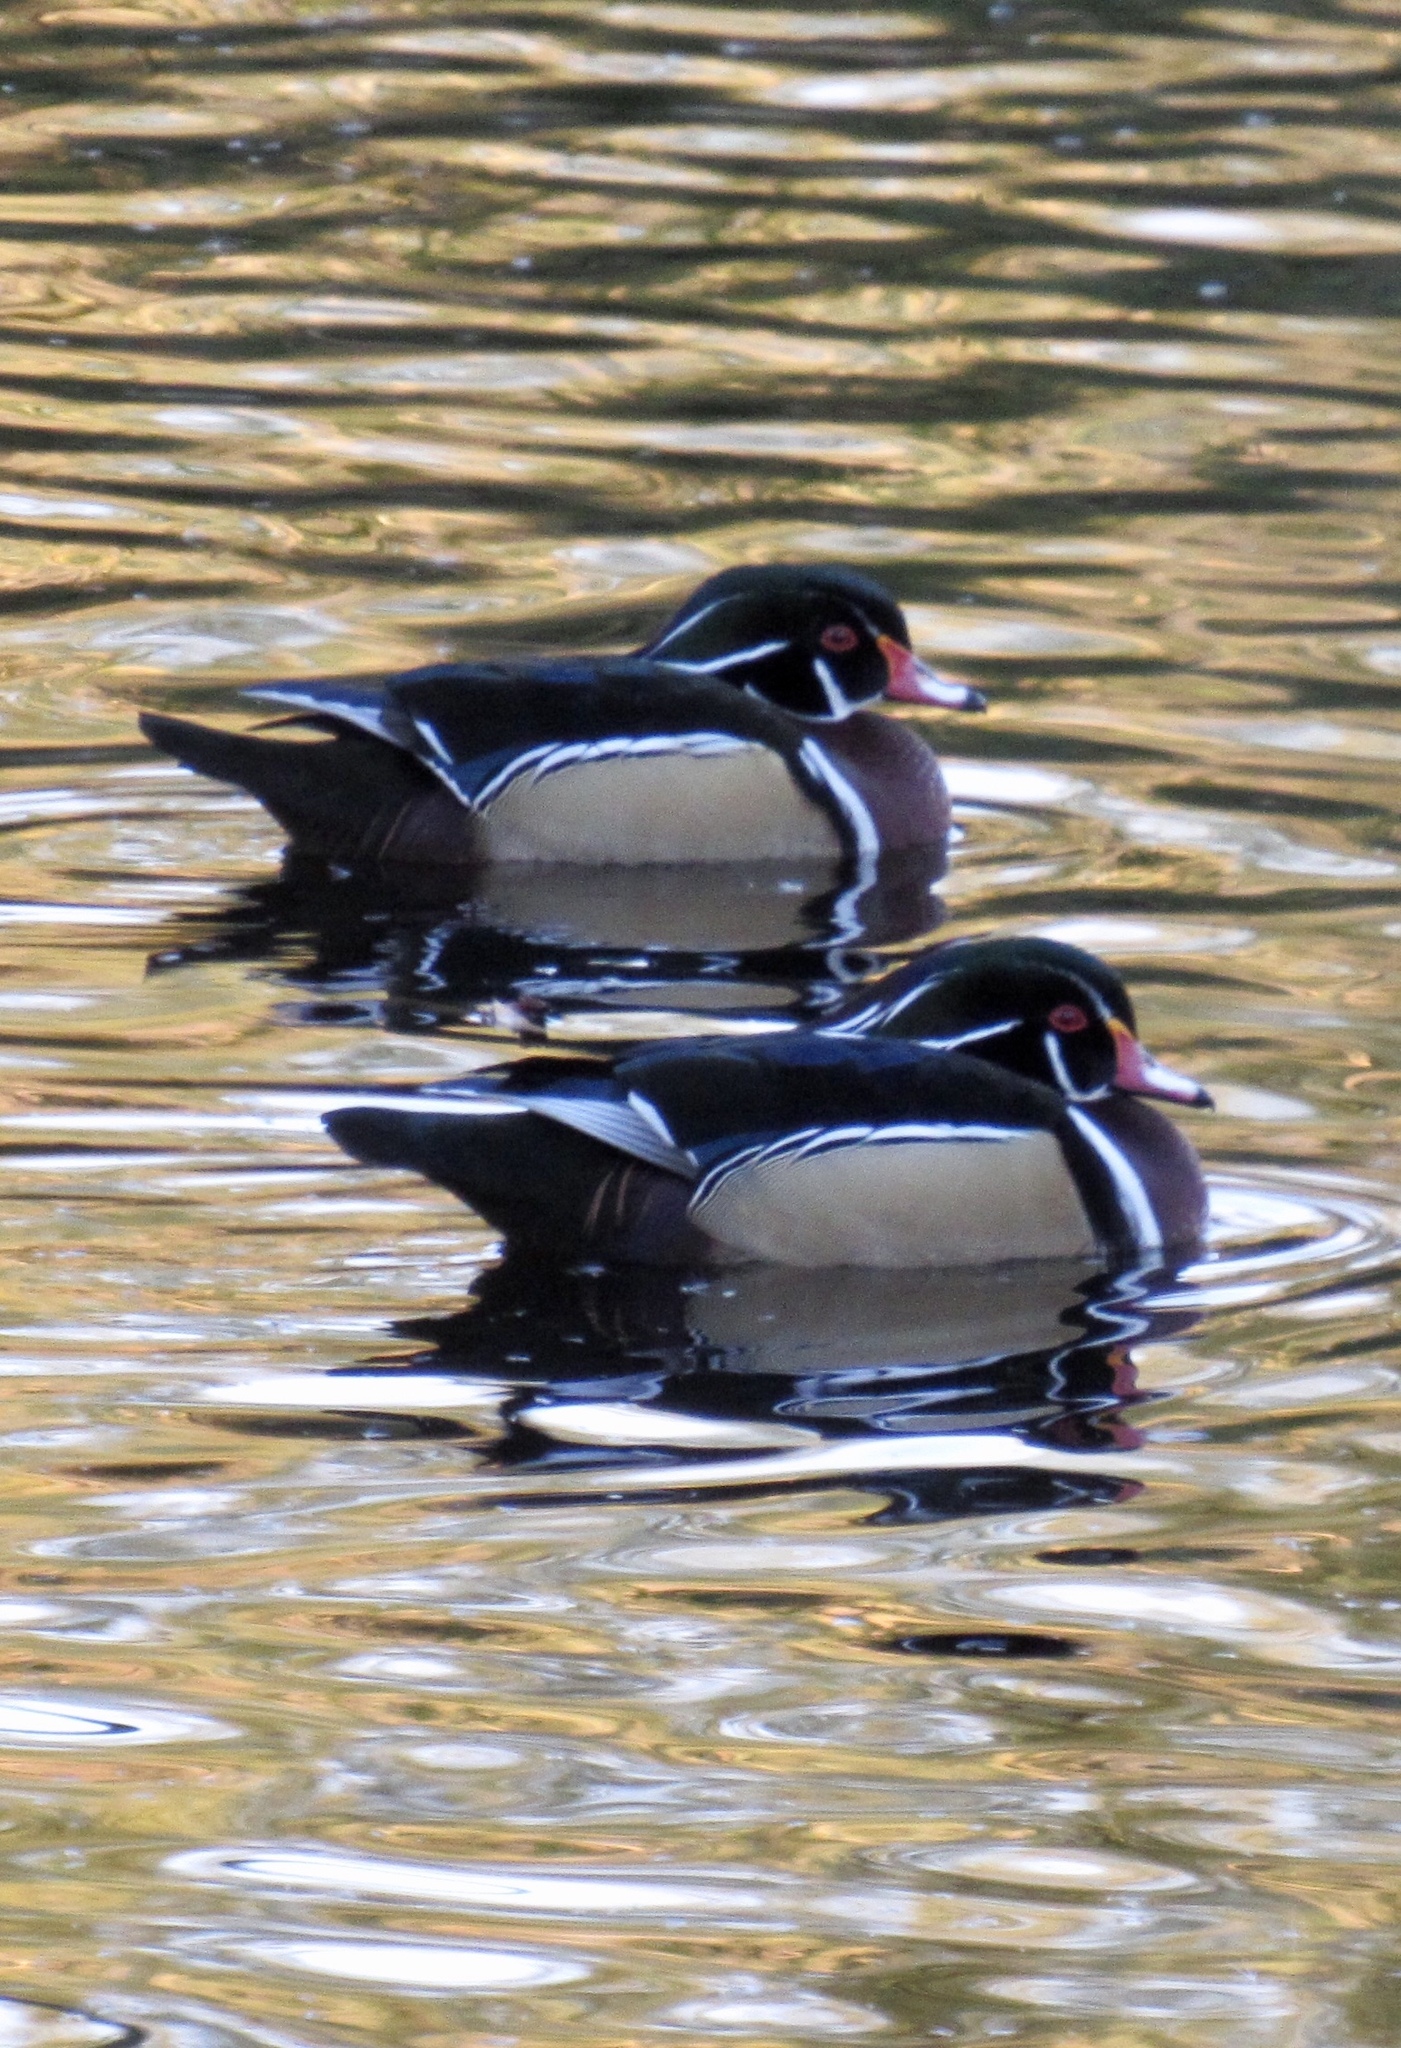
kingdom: Animalia
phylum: Chordata
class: Aves
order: Anseriformes
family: Anatidae
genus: Aix
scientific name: Aix sponsa
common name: Wood duck
